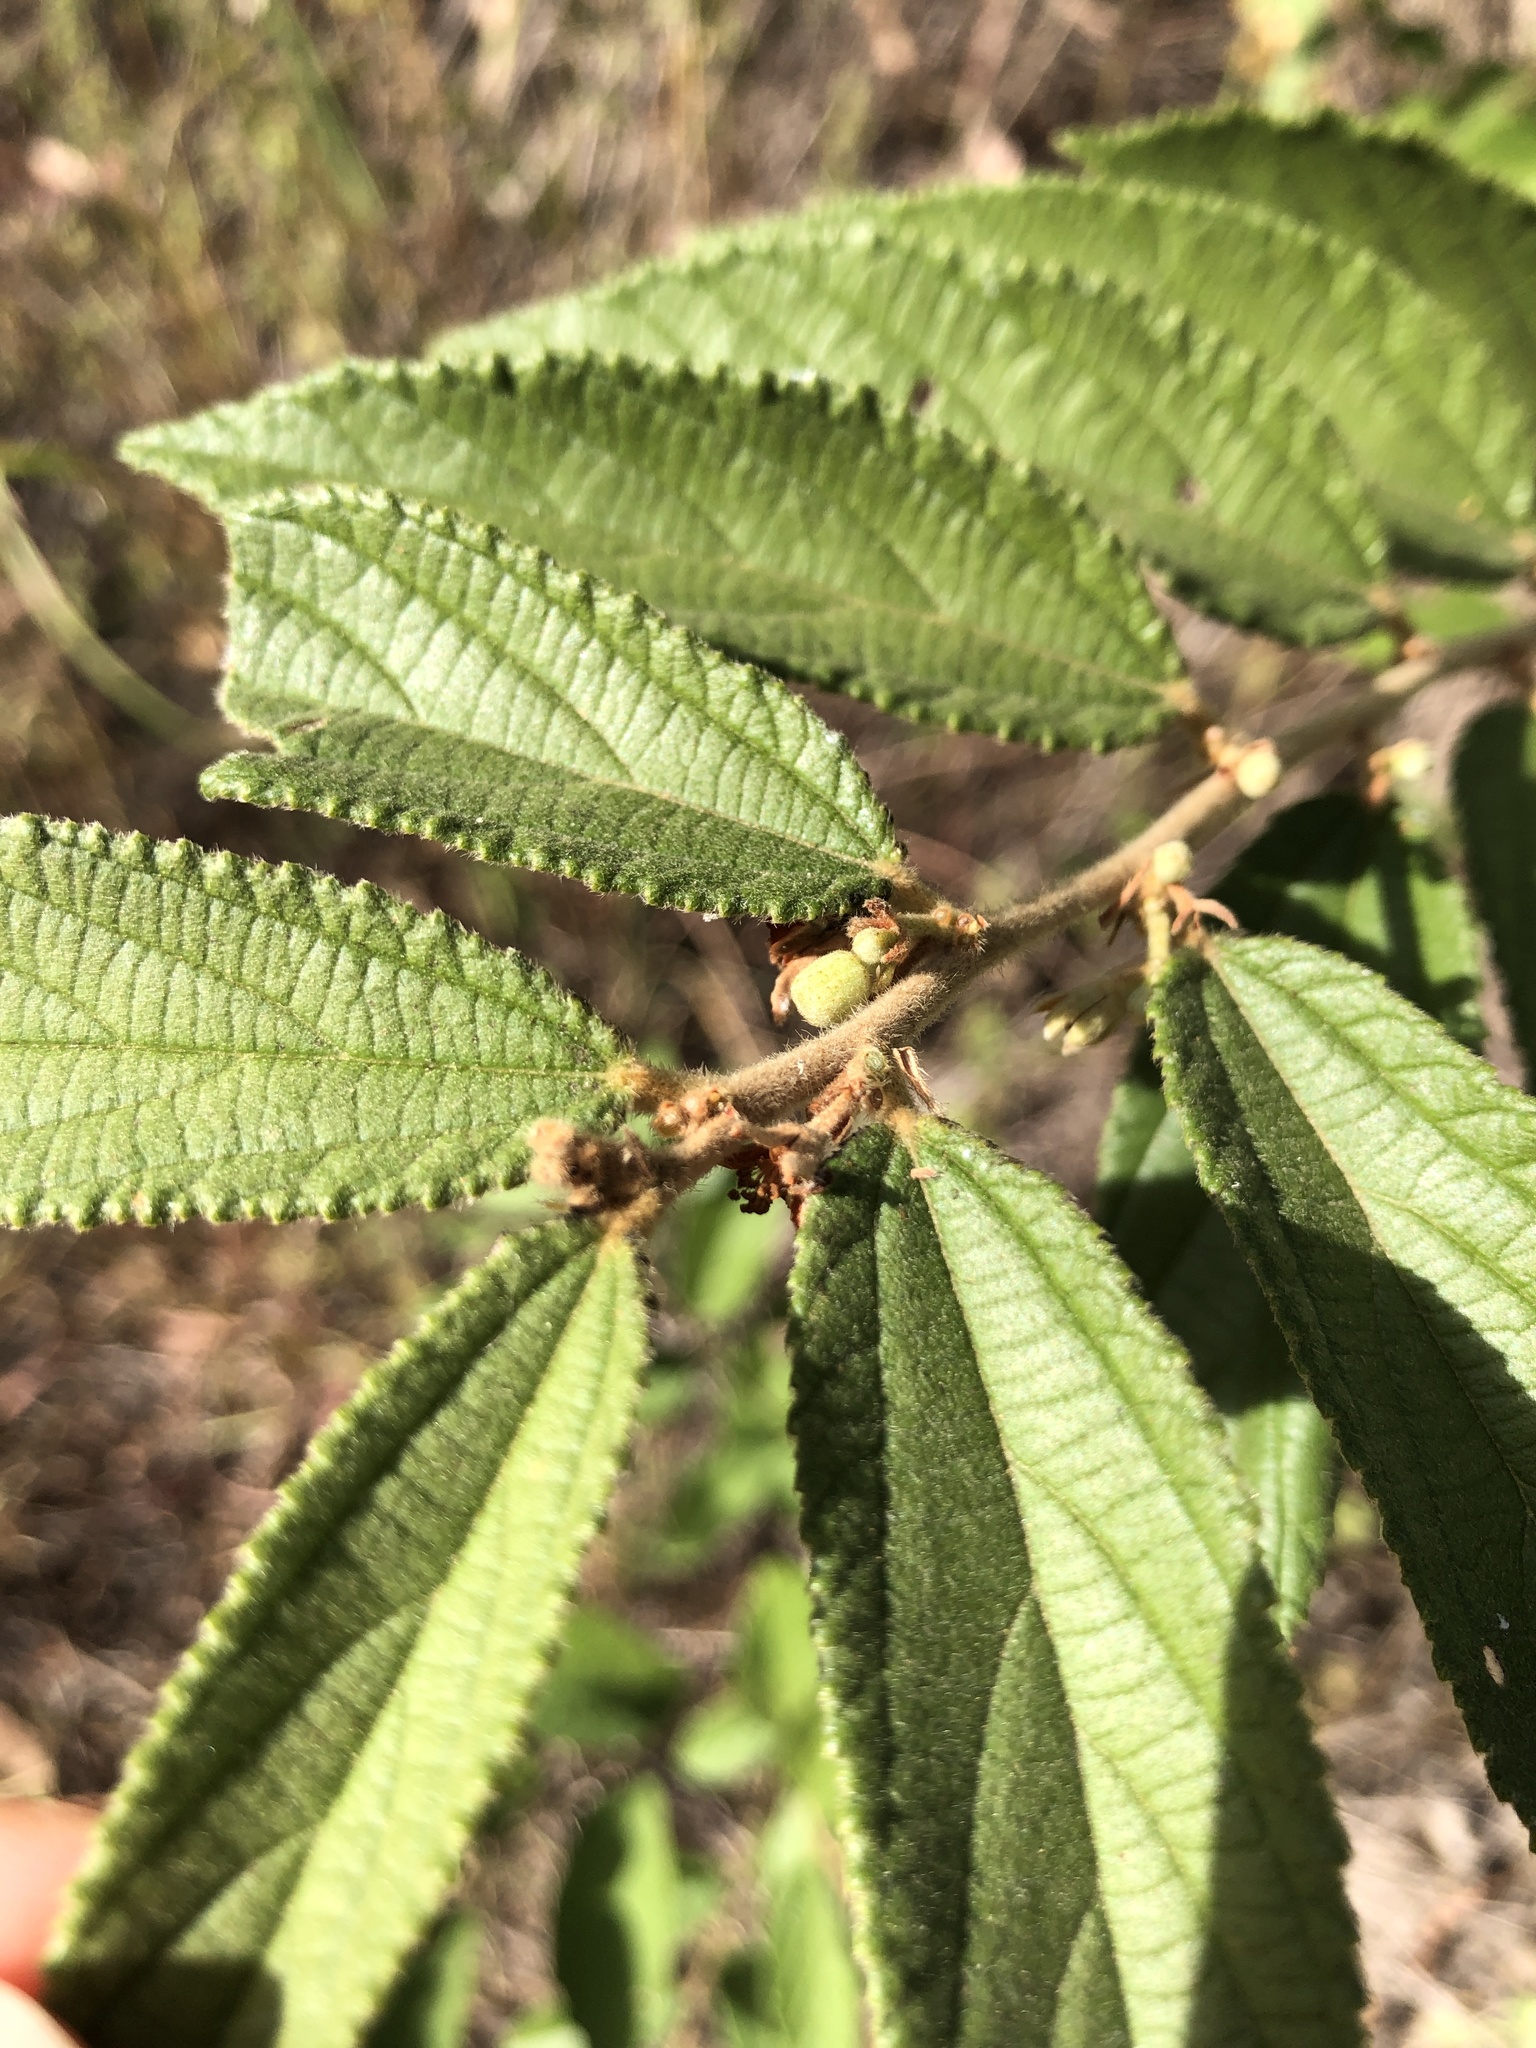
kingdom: Plantae
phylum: Tracheophyta
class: Magnoliopsida
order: Malvales
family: Malvaceae
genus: Grewia
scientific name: Grewia savannicola
